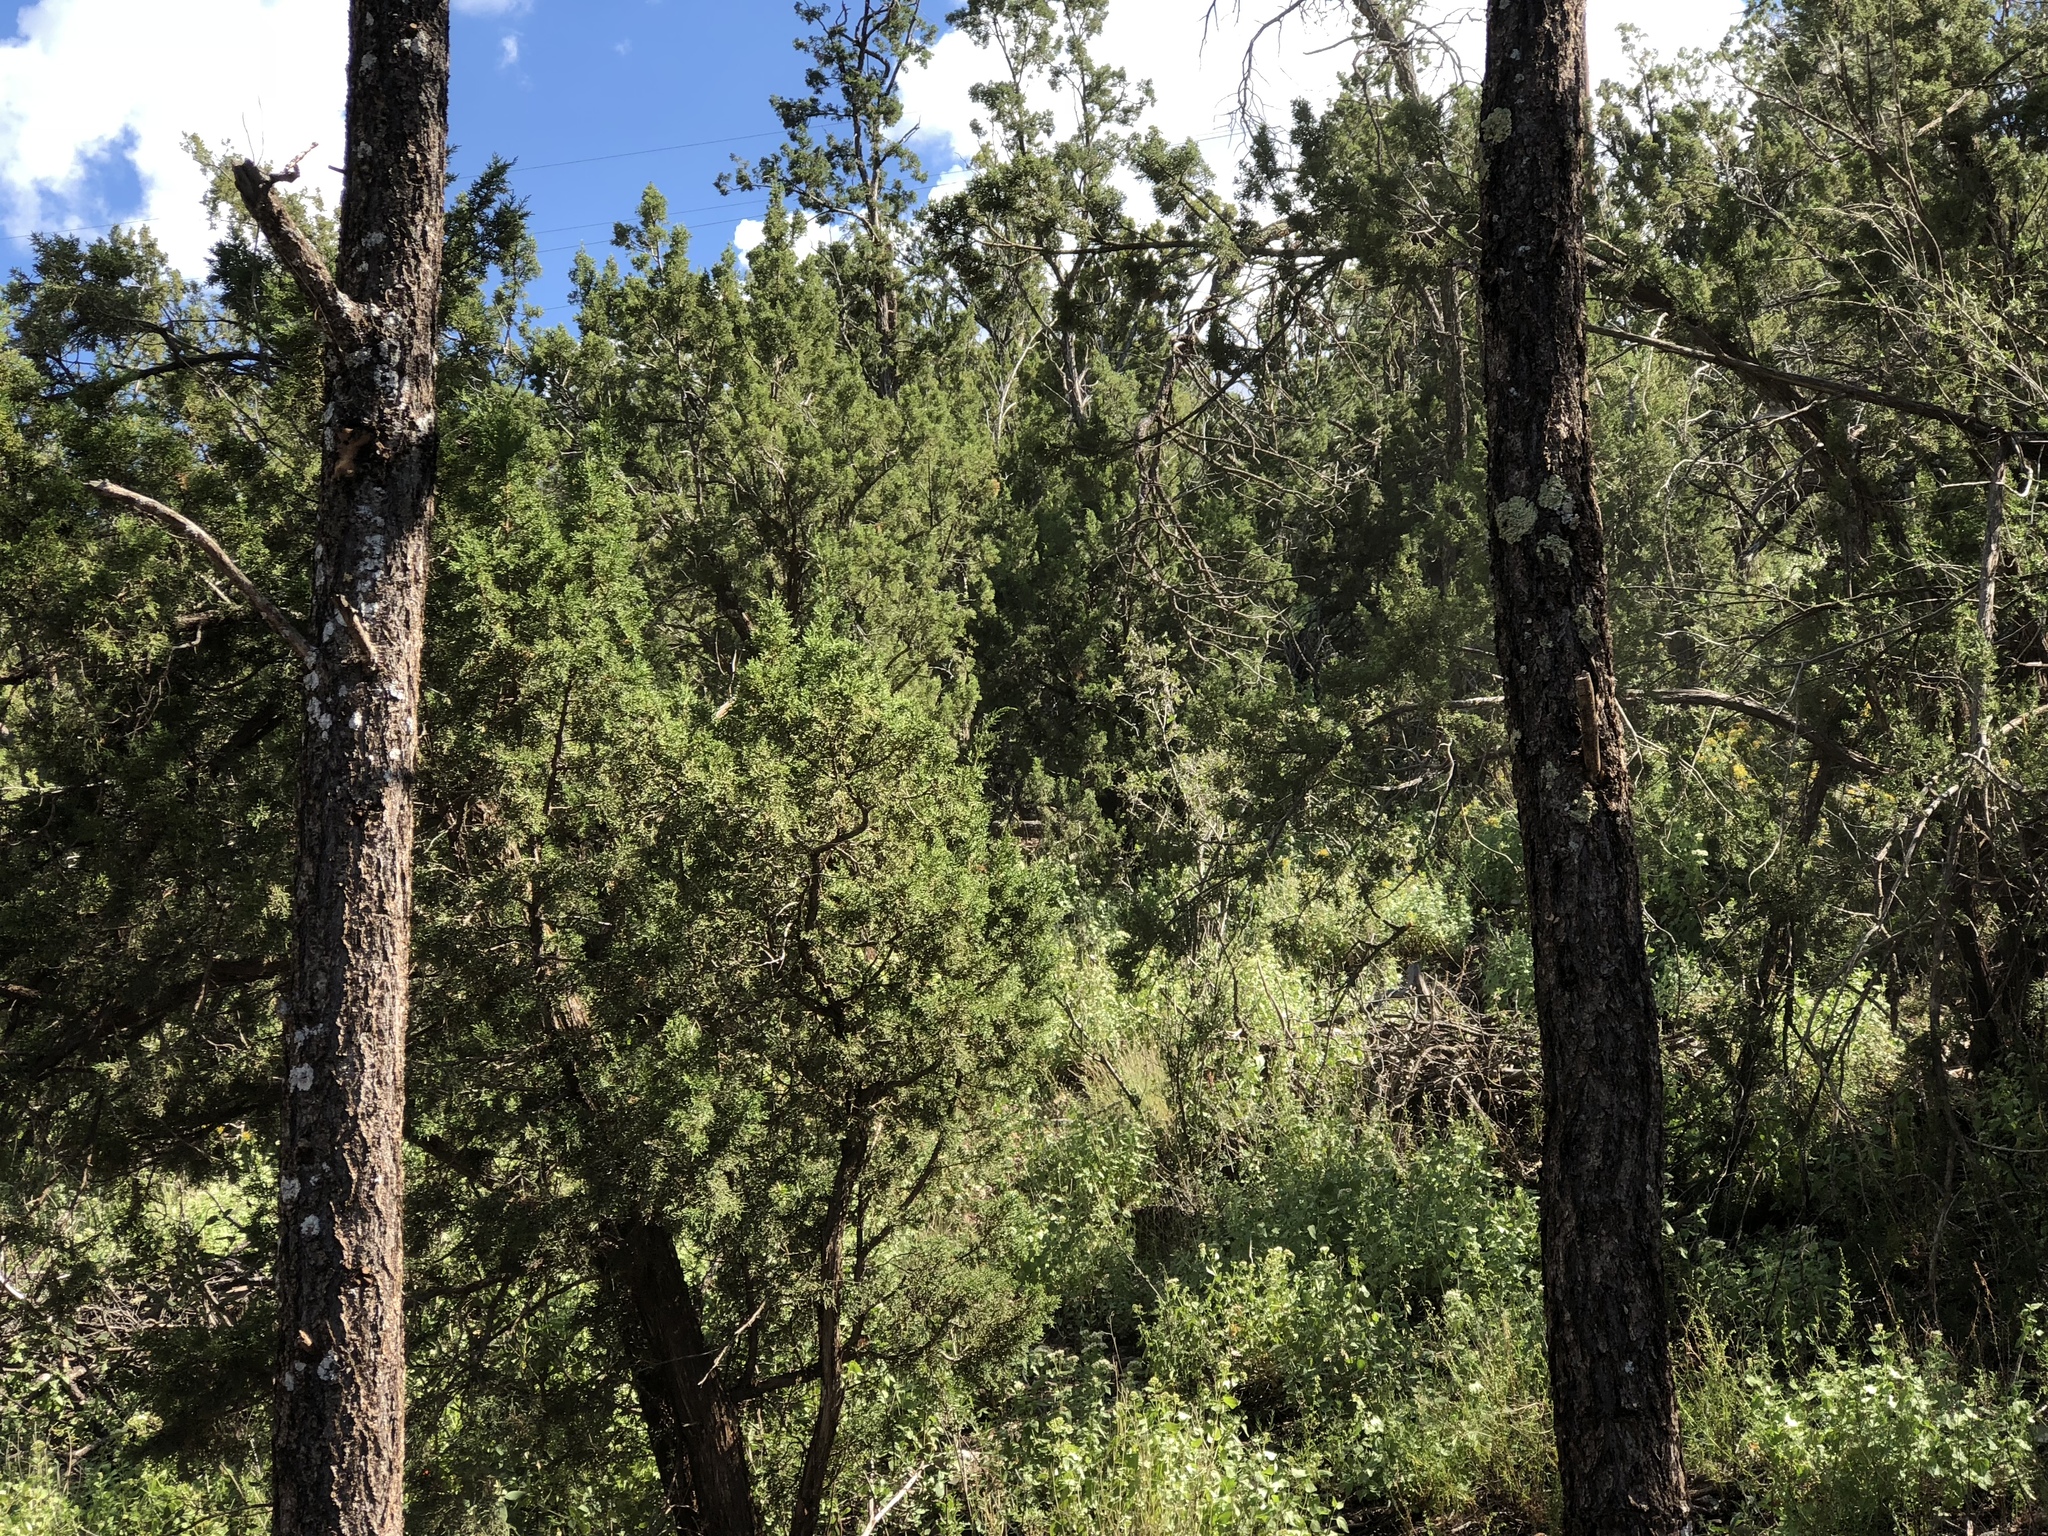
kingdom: Plantae
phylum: Tracheophyta
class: Pinopsida
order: Pinales
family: Pinaceae
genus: Pinus
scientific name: Pinus edulis
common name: Colorado pinyon
